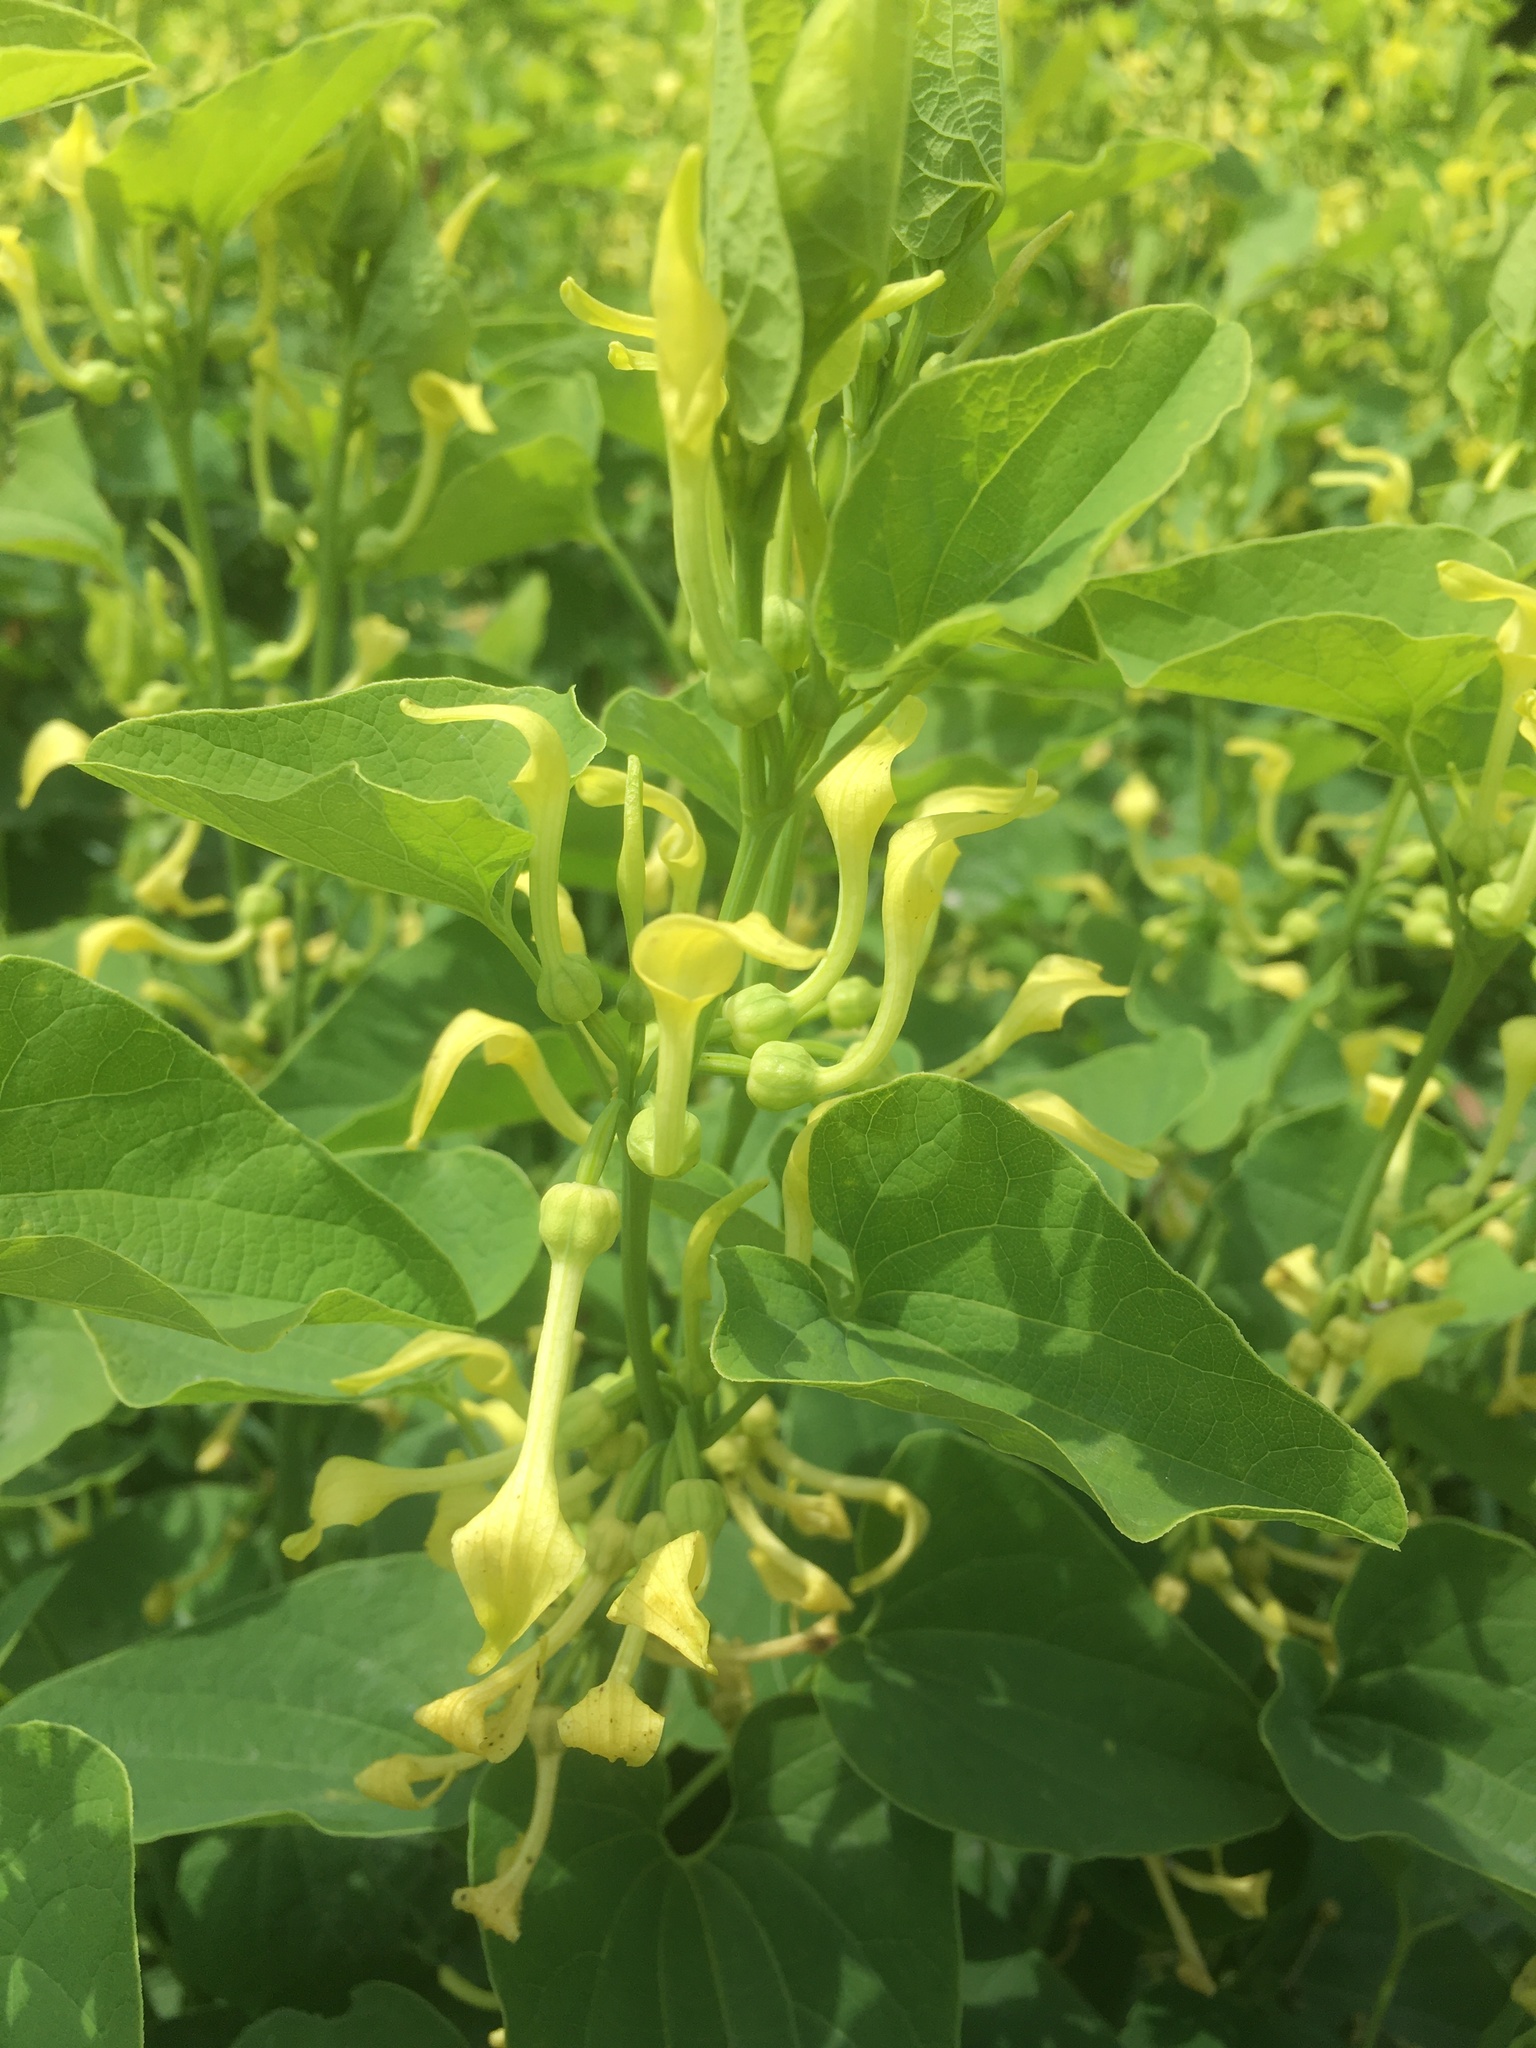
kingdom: Plantae
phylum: Tracheophyta
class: Magnoliopsida
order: Piperales
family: Aristolochiaceae
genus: Aristolochia
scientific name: Aristolochia clematitis
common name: Birthwort
